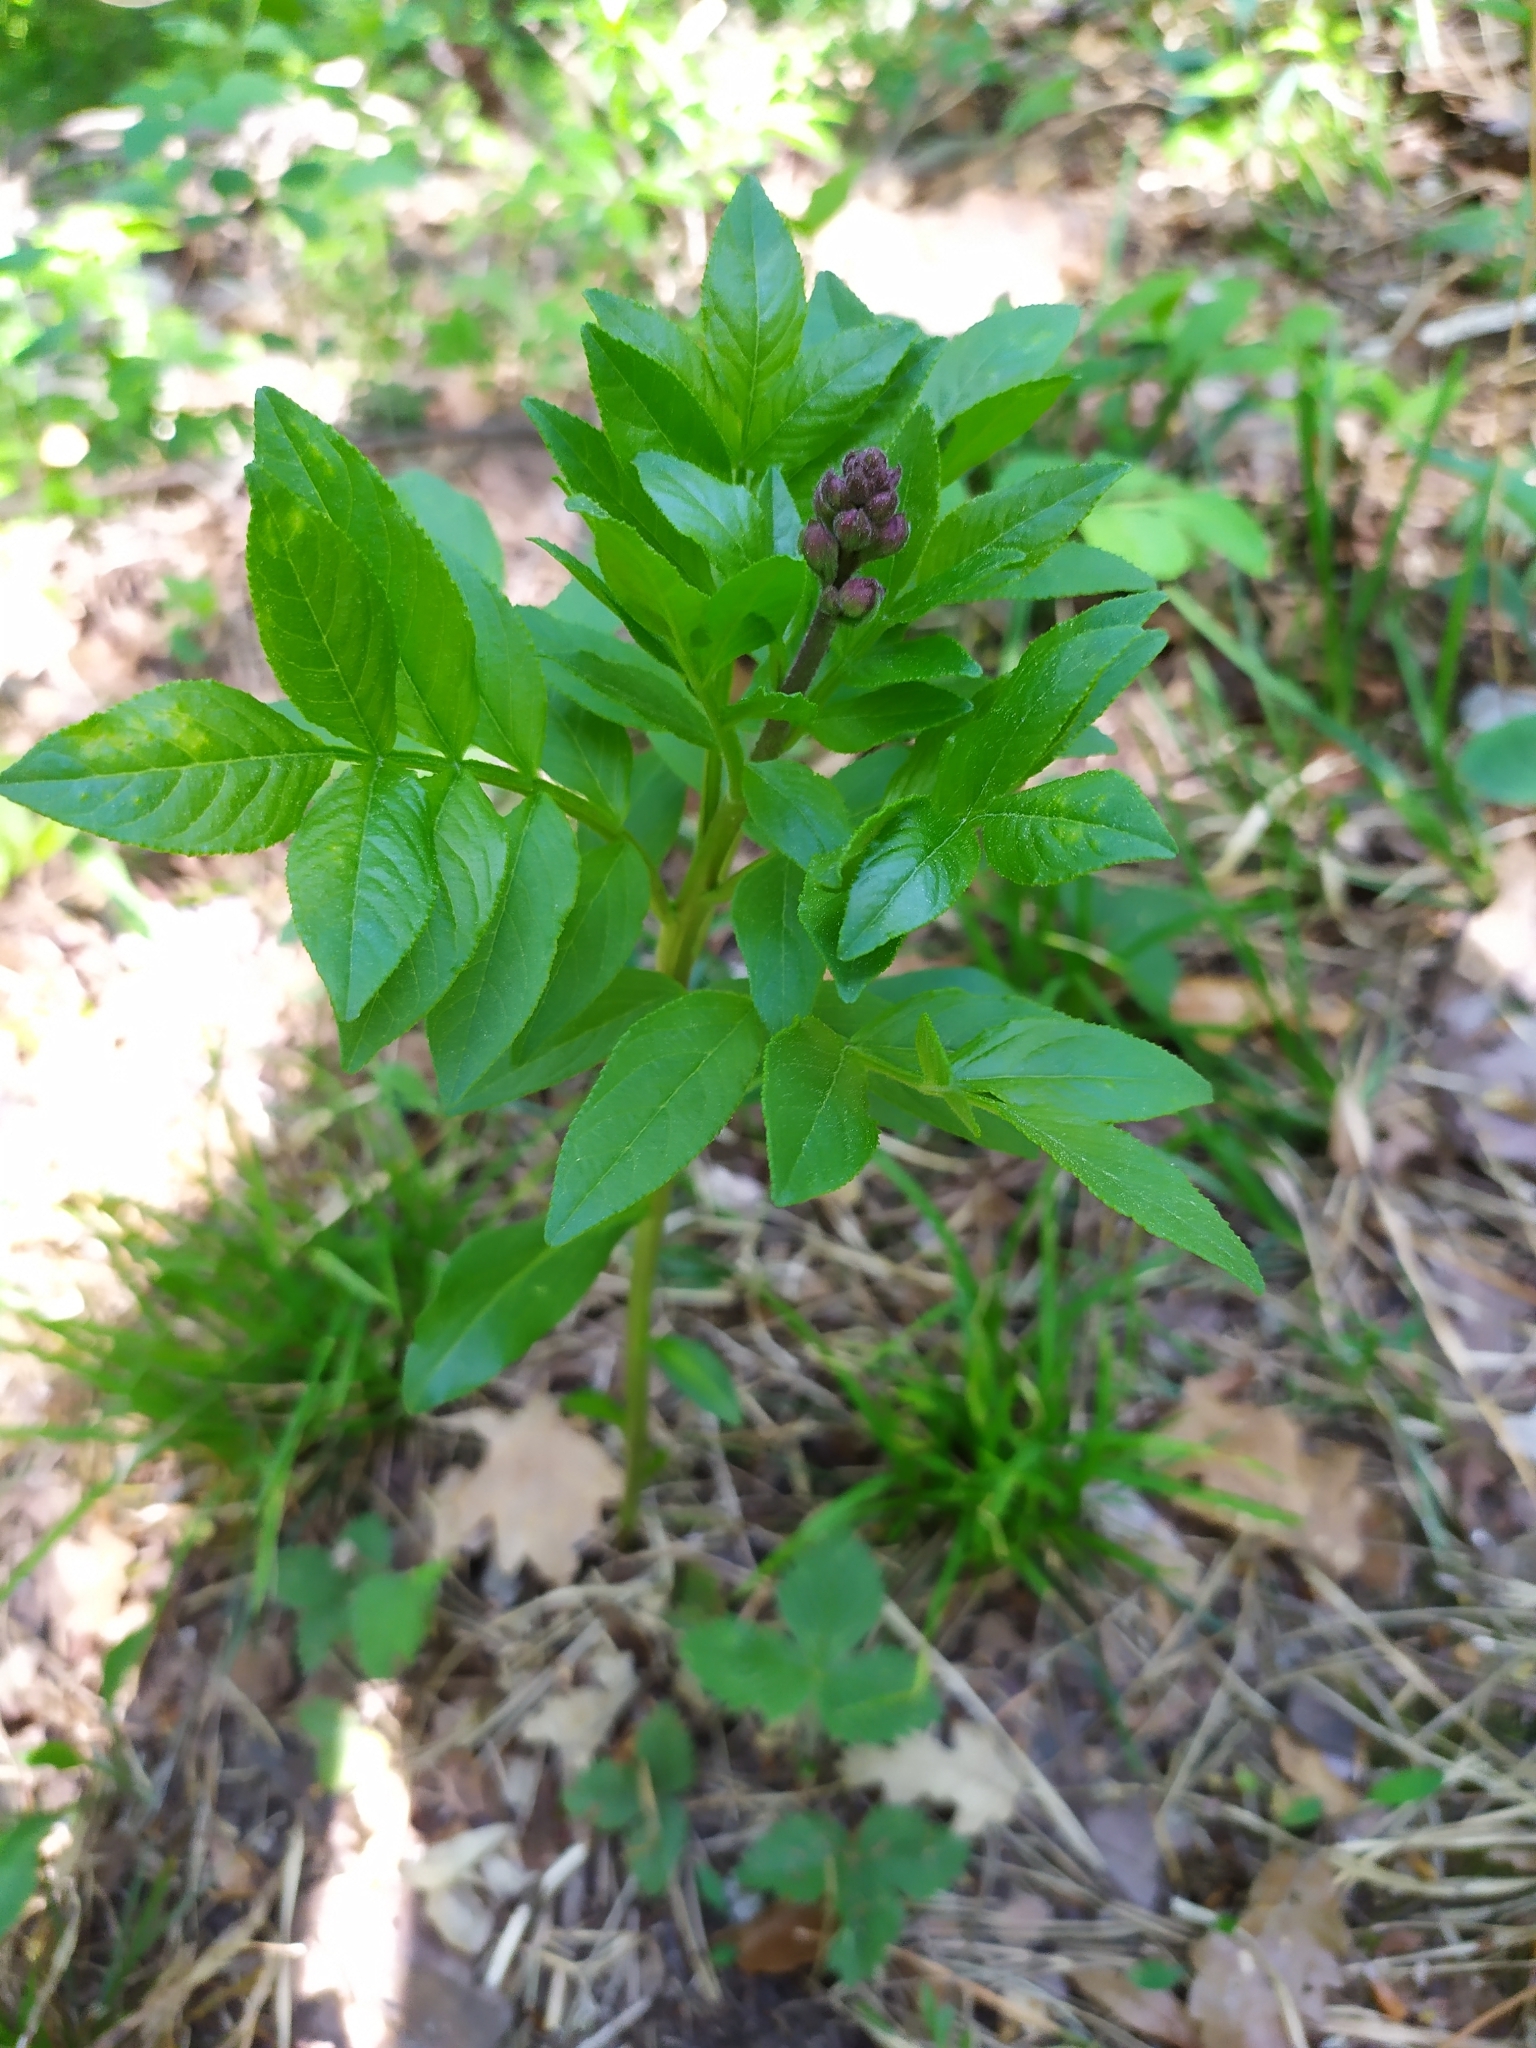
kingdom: Plantae
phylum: Tracheophyta
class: Magnoliopsida
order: Sapindales
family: Rutaceae
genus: Dictamnus
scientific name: Dictamnus albus
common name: Gasplant
